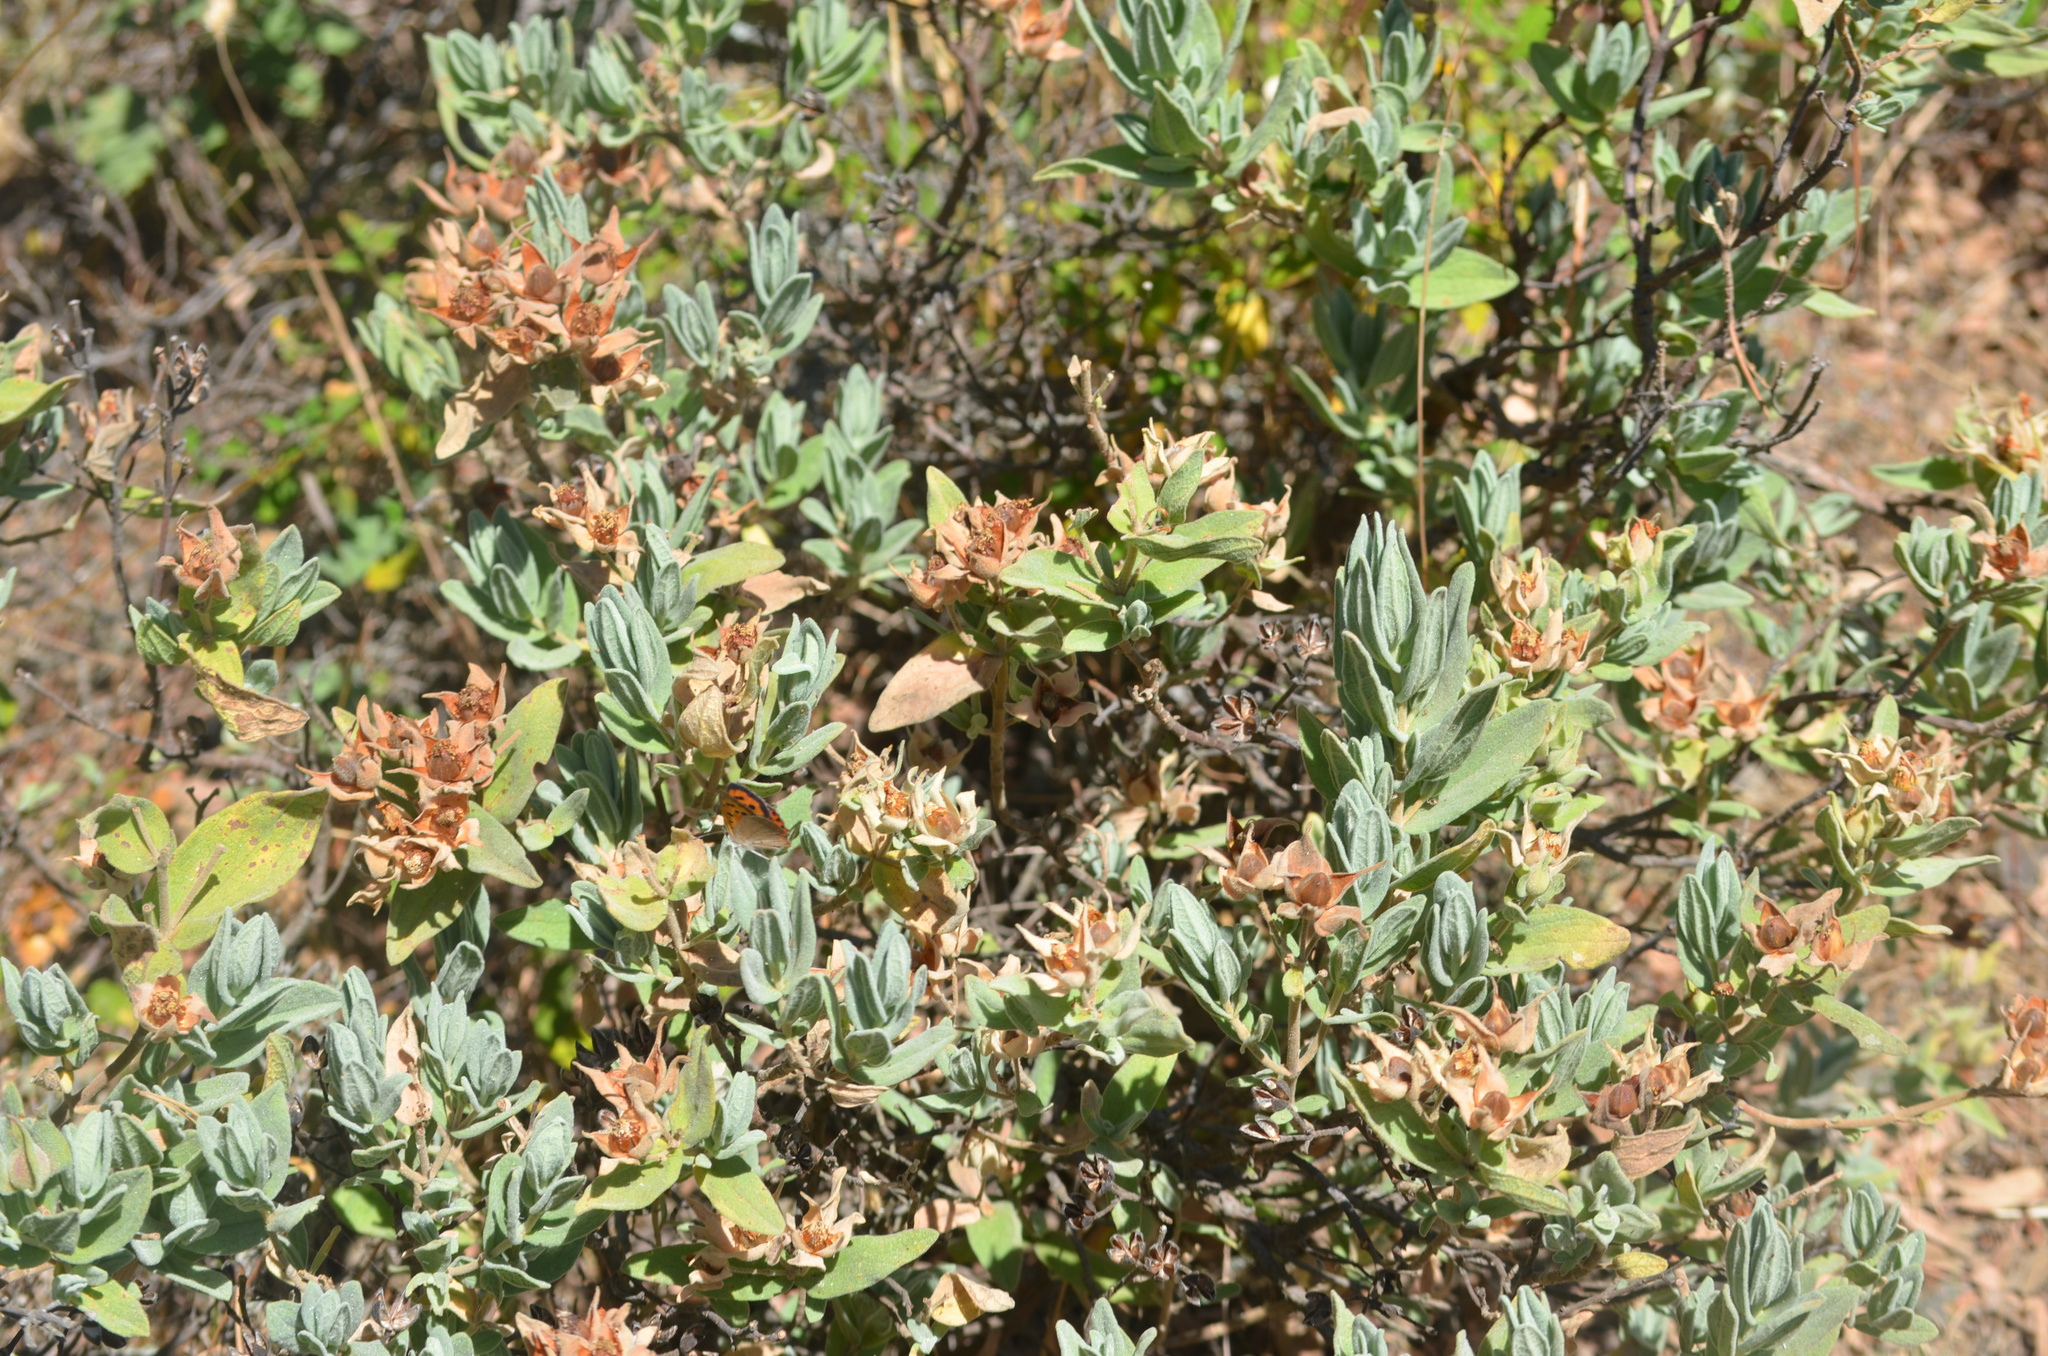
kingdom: Plantae
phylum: Tracheophyta
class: Magnoliopsida
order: Malvales
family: Cistaceae
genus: Cistus
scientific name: Cistus albidus
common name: White-leaf rock-rose
